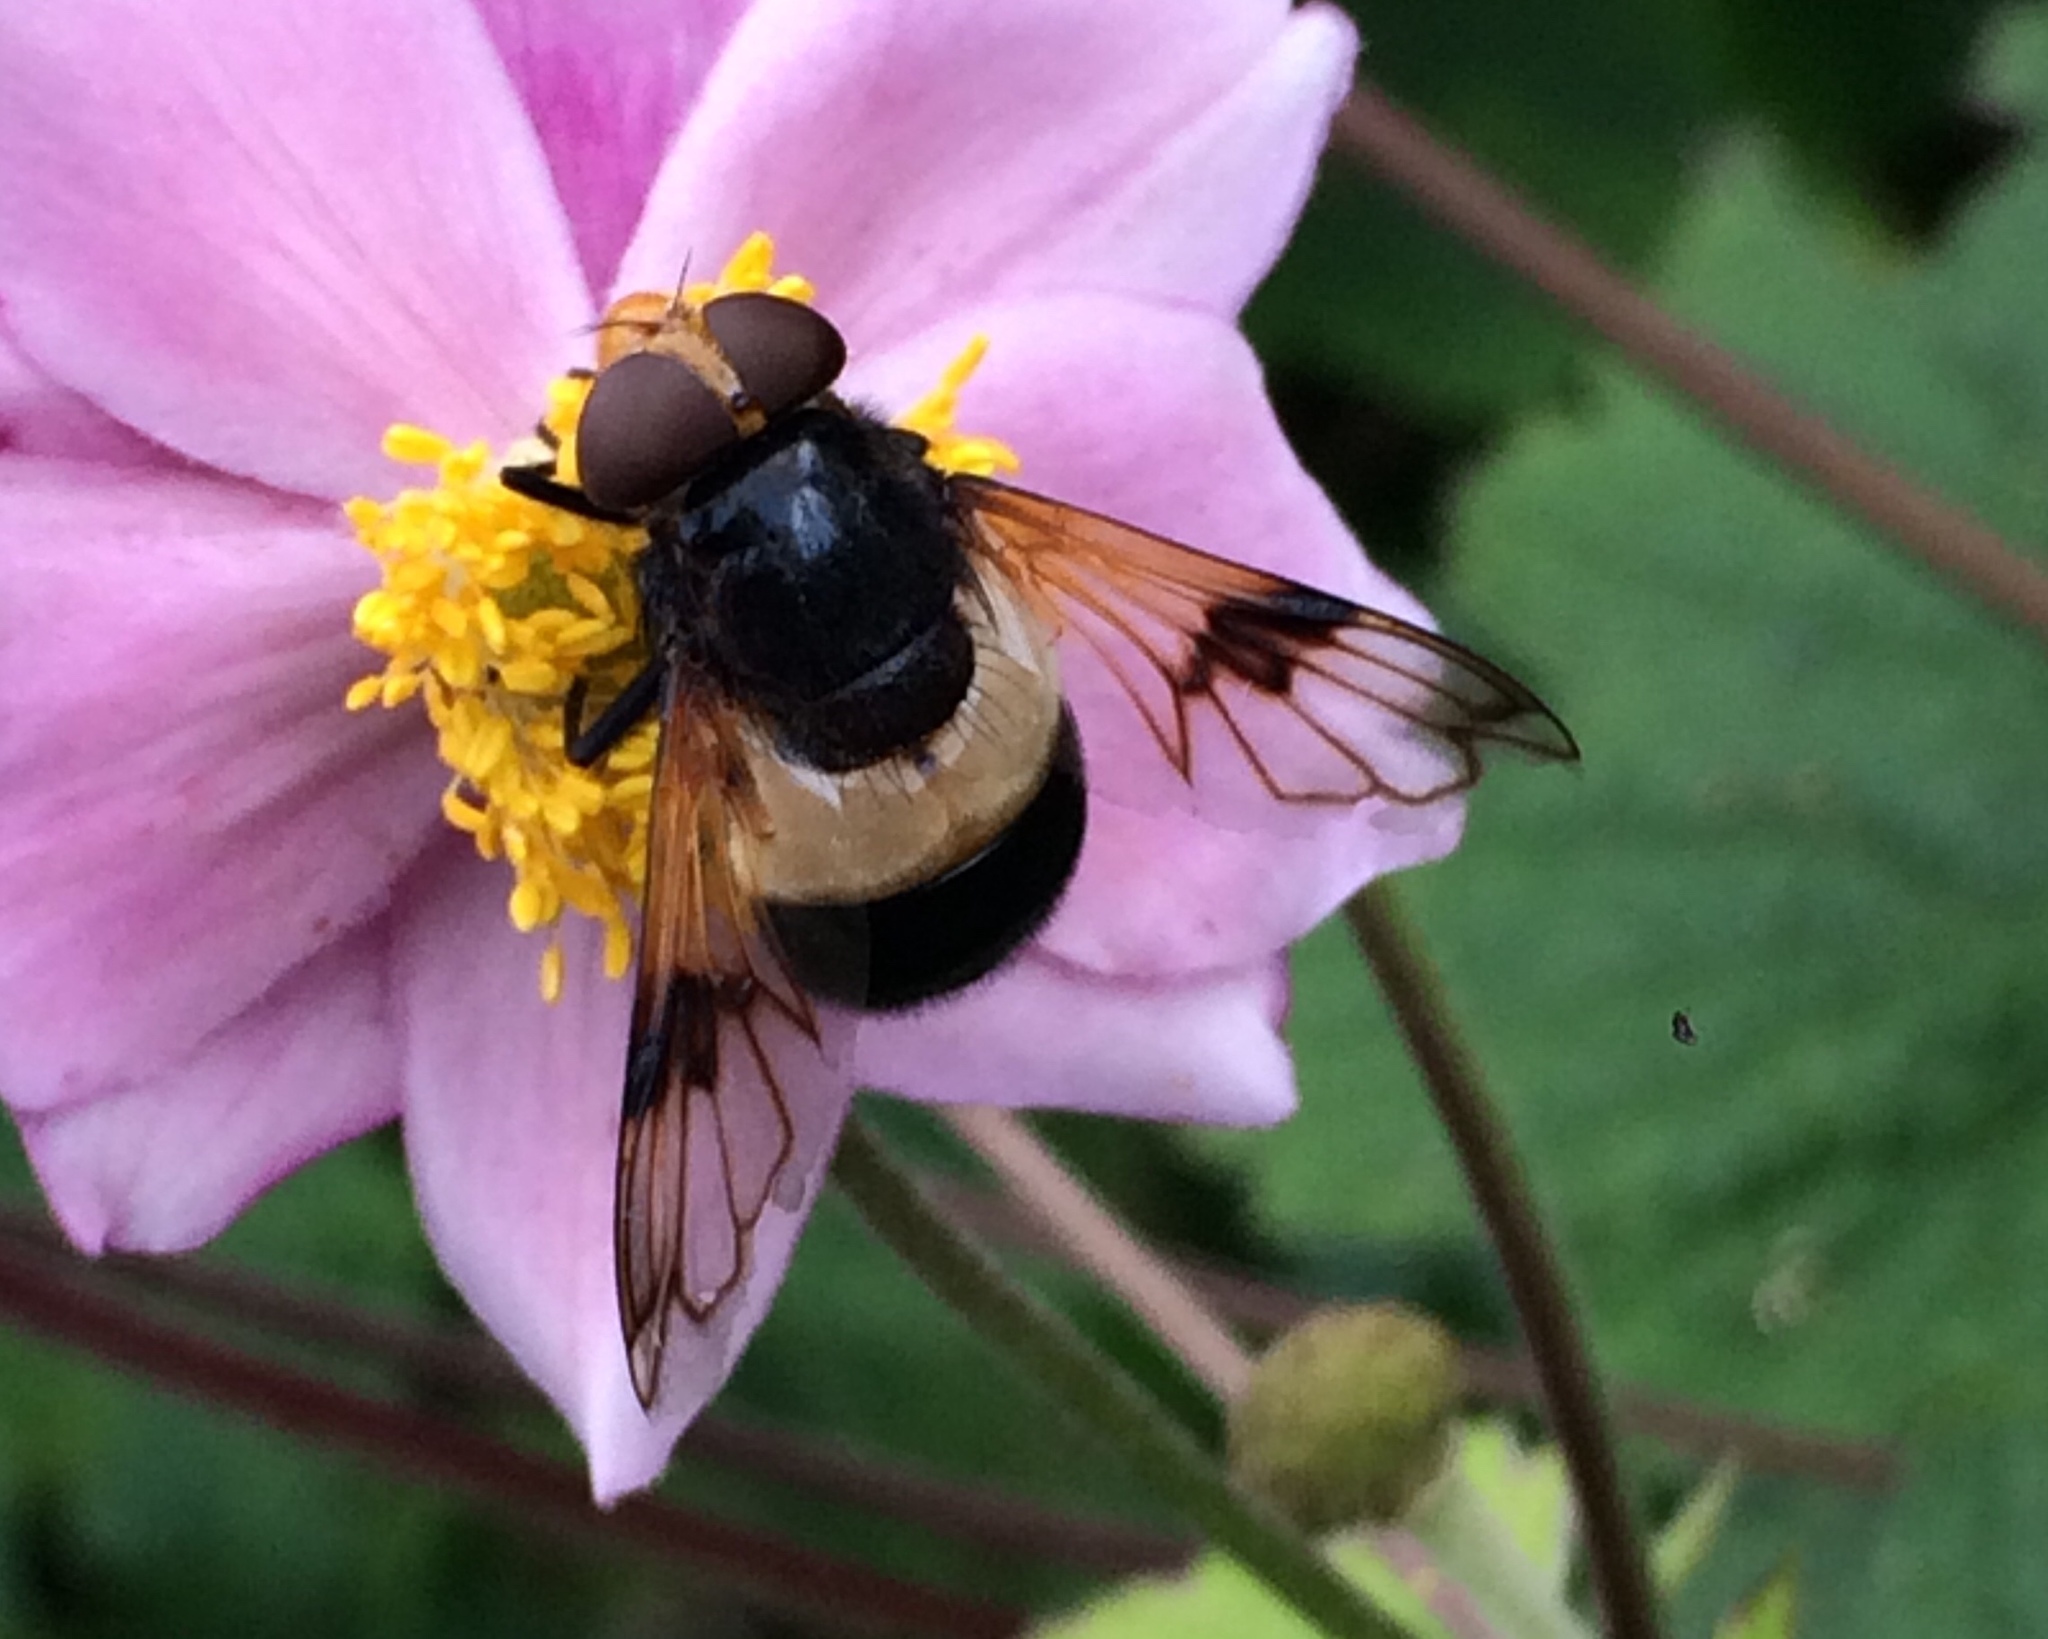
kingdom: Animalia
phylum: Arthropoda
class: Insecta
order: Diptera
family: Syrphidae
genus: Volucella
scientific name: Volucella pellucens
